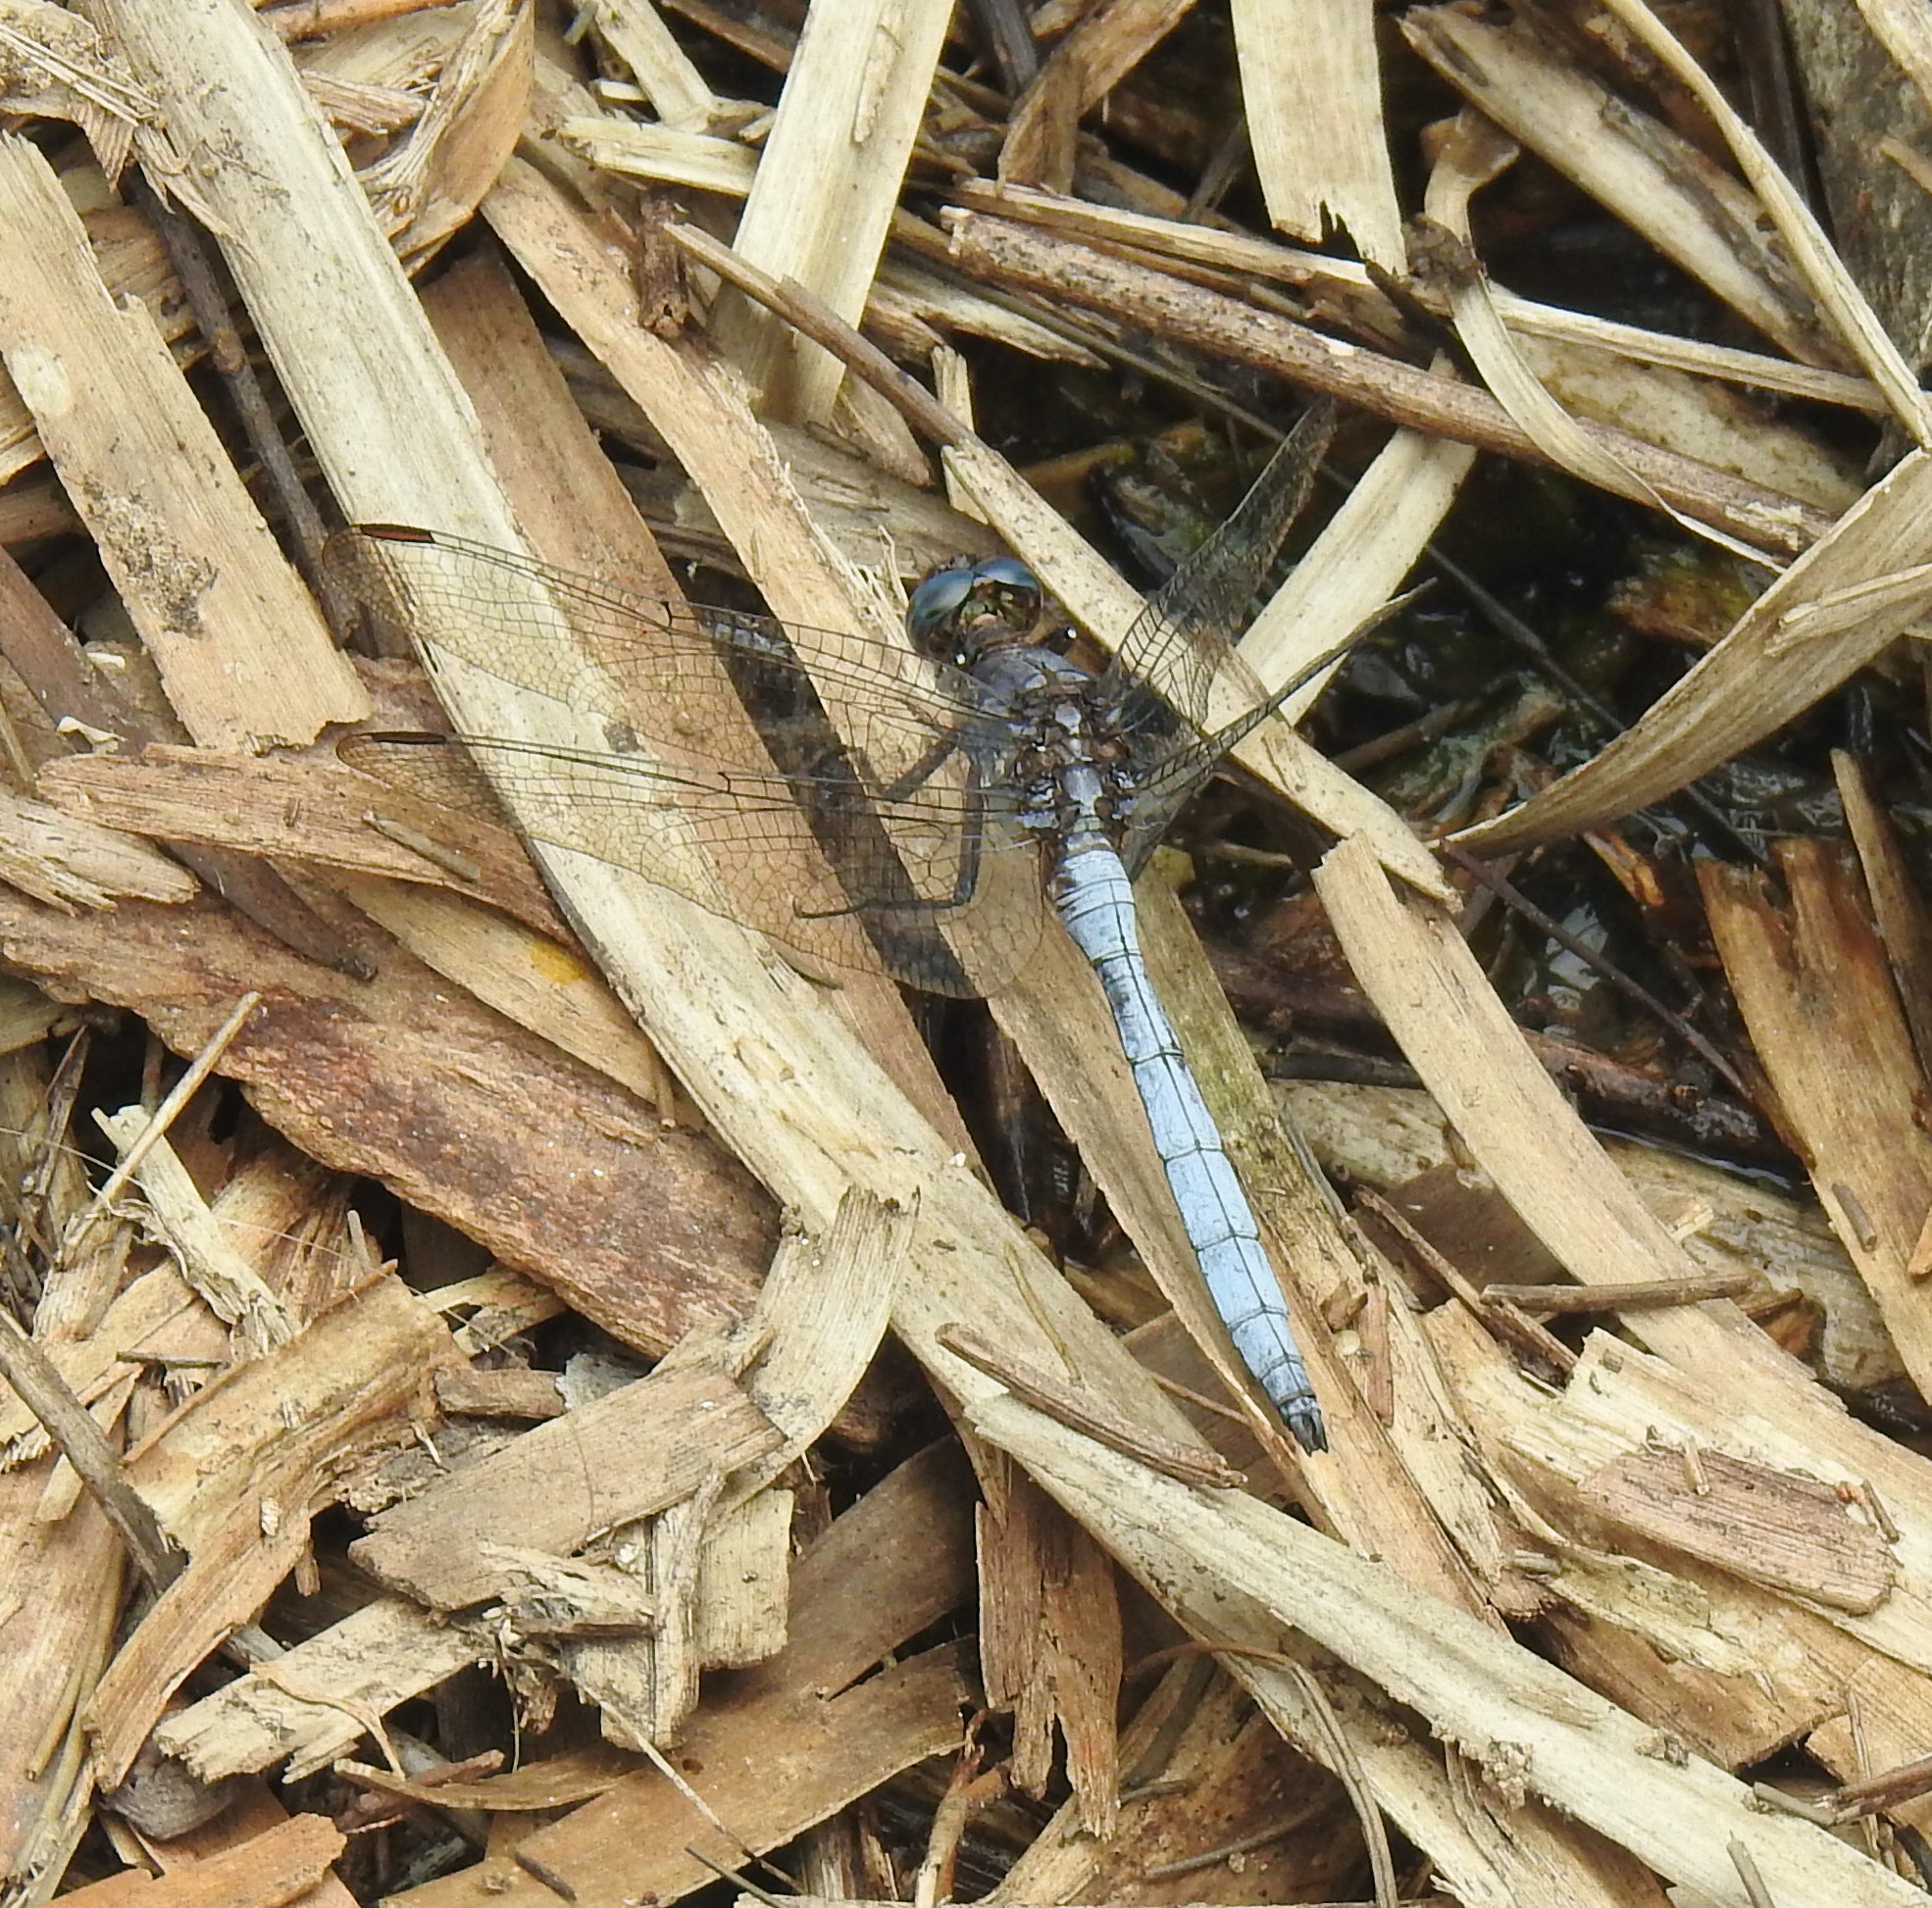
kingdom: Animalia
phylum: Arthropoda
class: Insecta
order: Odonata
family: Libellulidae
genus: Orthetrum
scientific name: Orthetrum julia
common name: Julia skimmer
